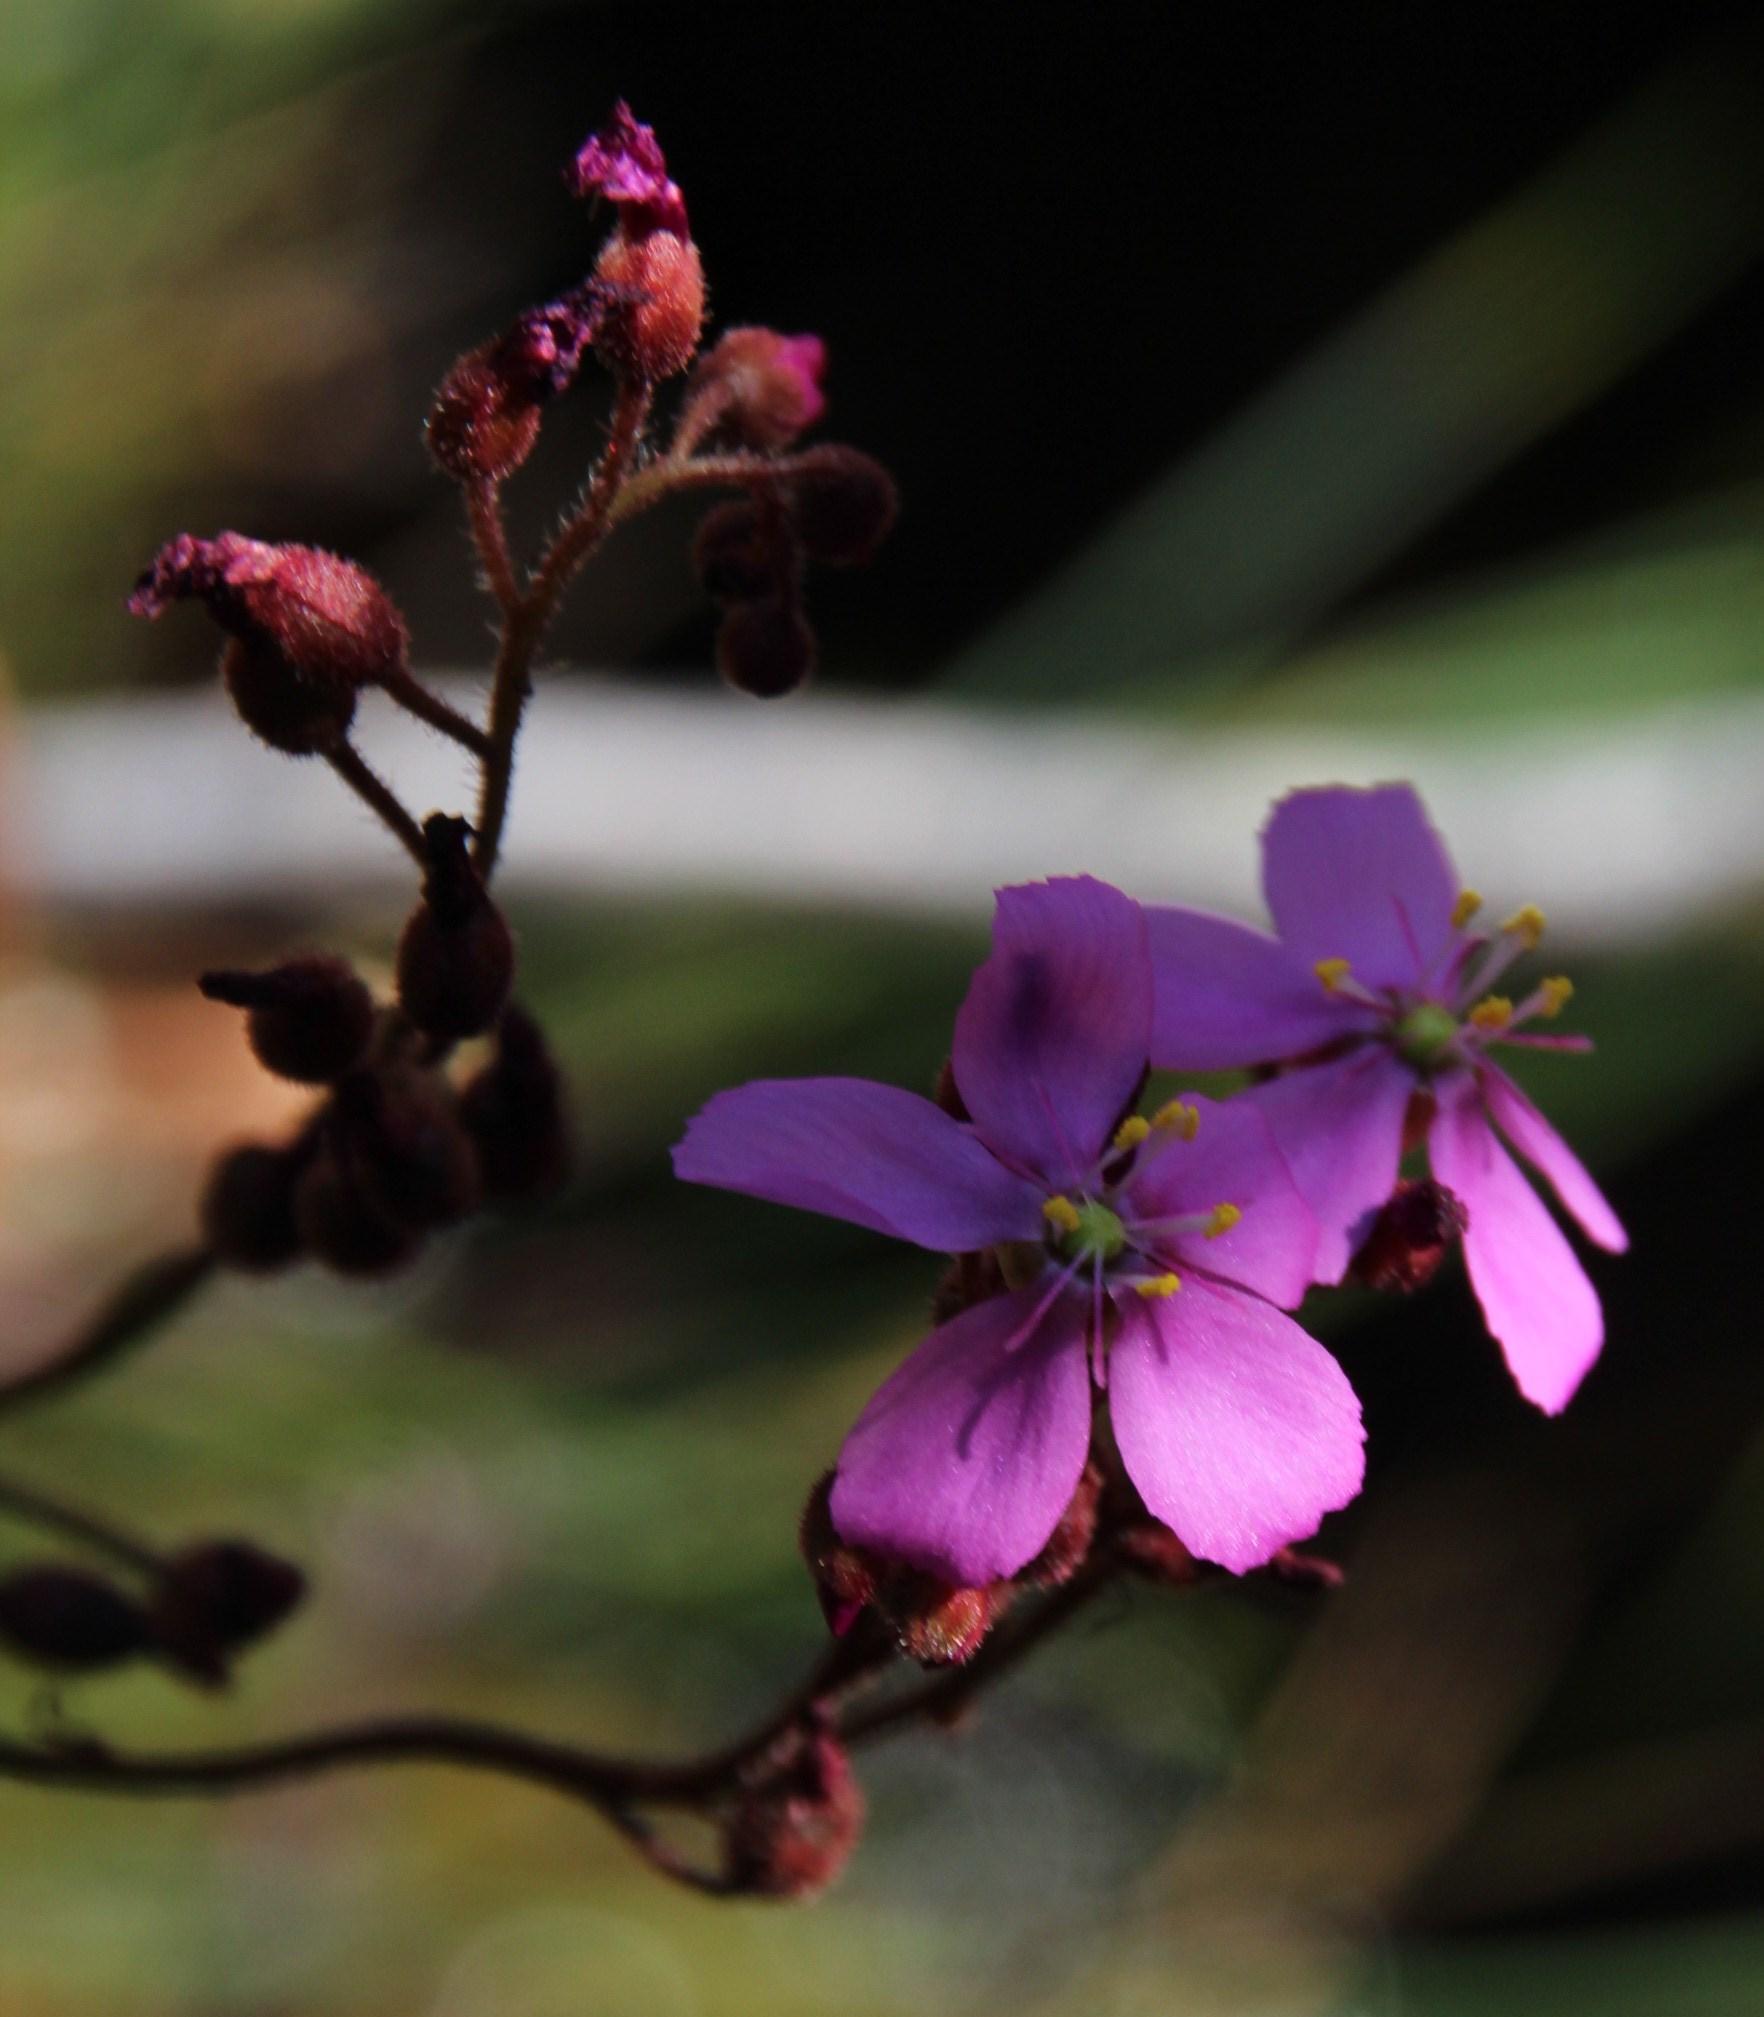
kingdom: Plantae
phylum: Tracheophyta
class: Magnoliopsida
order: Caryophyllales
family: Droseraceae
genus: Drosera
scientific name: Drosera capensis
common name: Cape sundew
